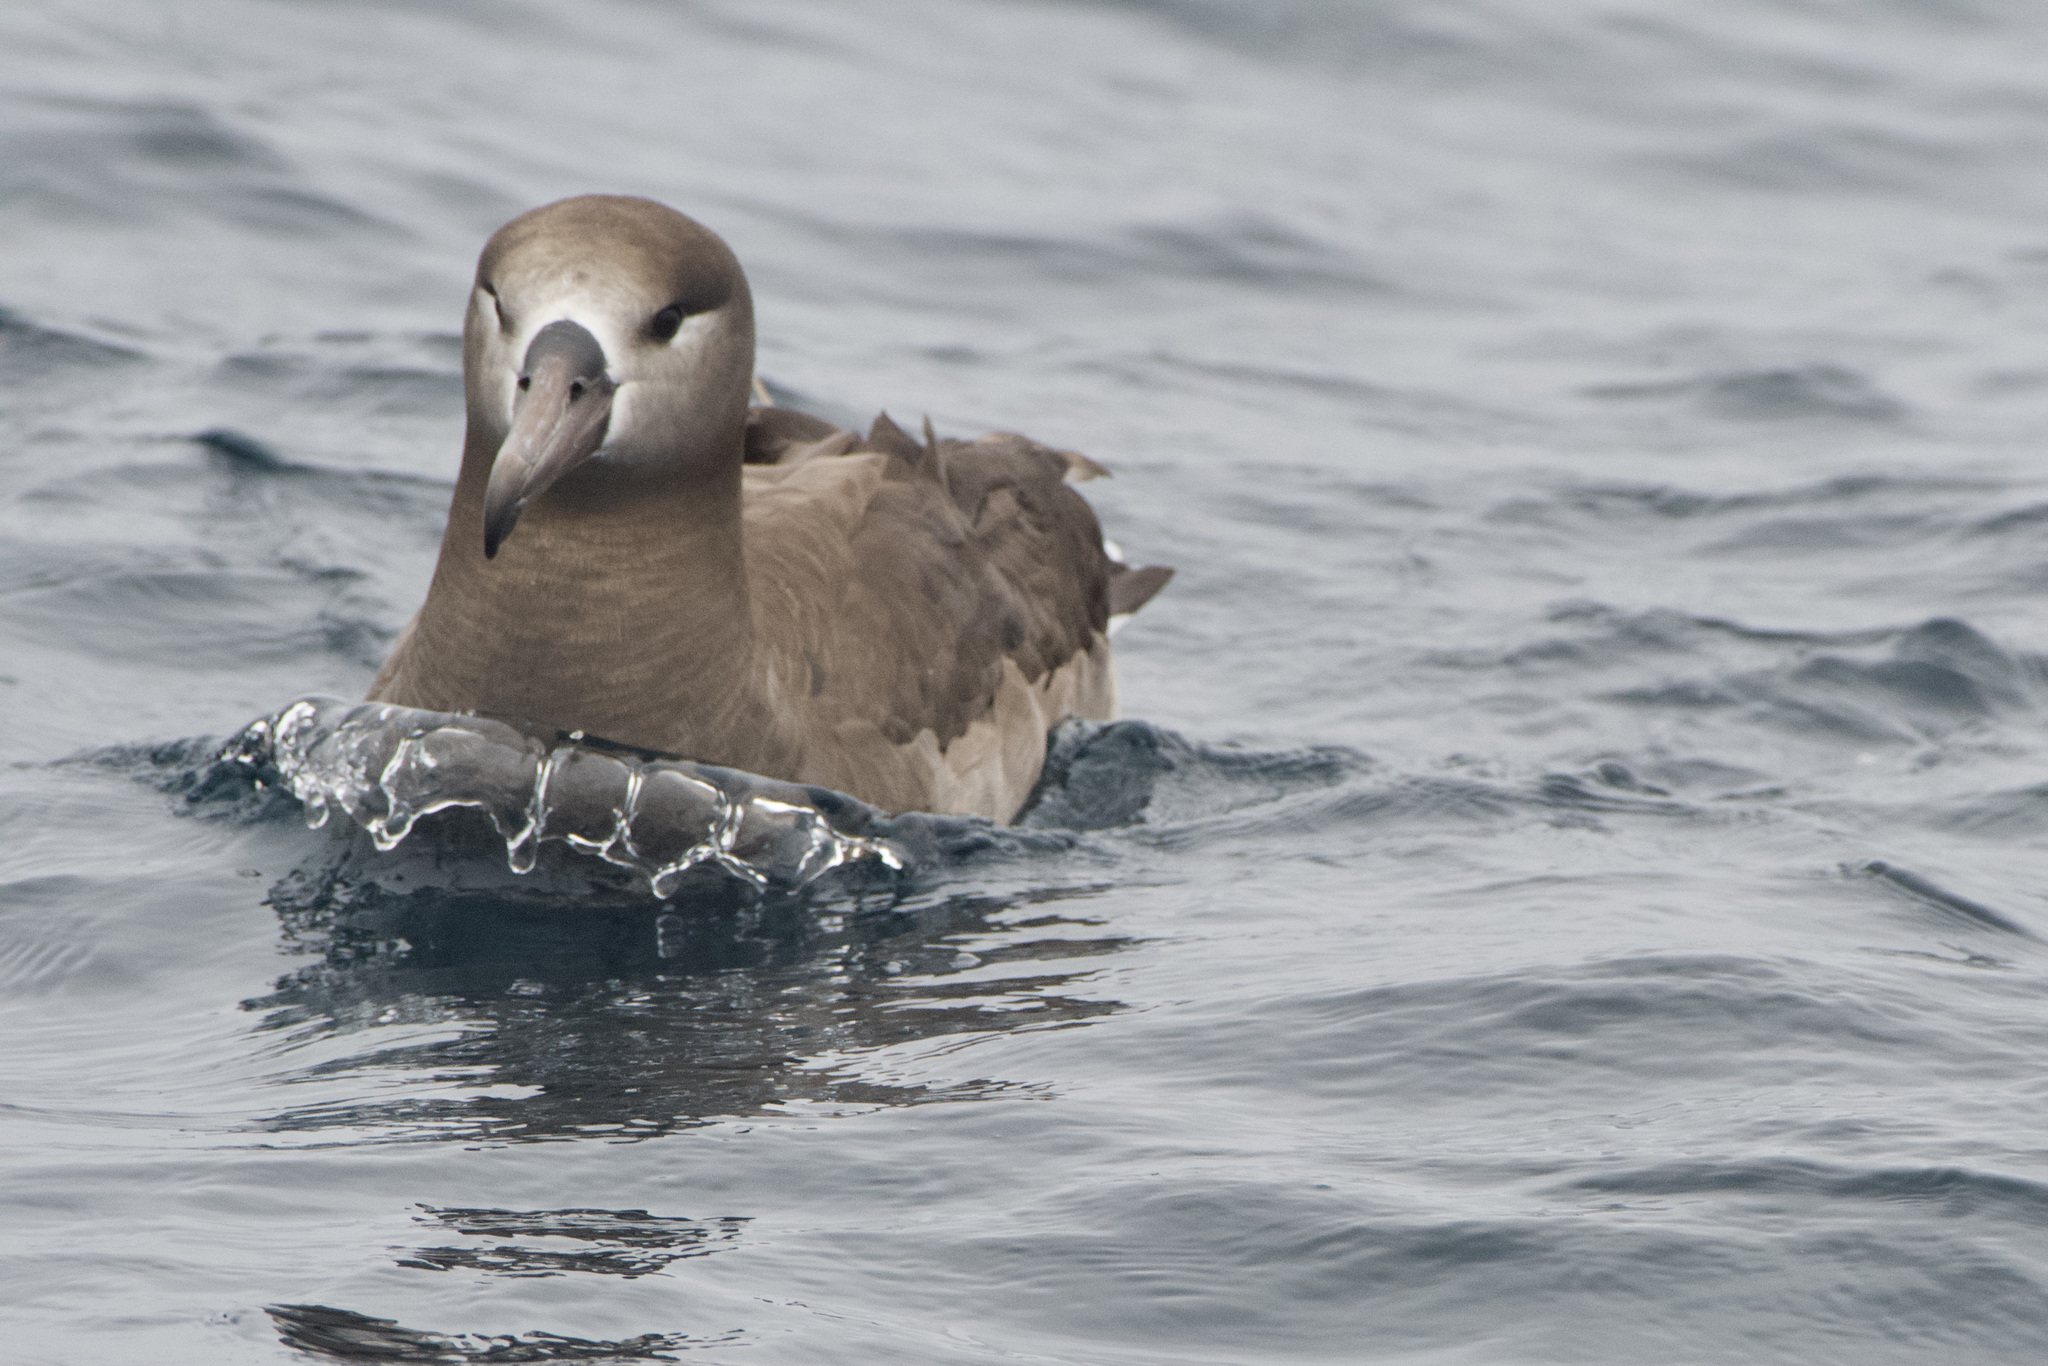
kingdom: Animalia
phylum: Chordata
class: Aves
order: Procellariiformes
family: Diomedeidae
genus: Phoebastria
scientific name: Phoebastria nigripes
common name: Black-footed albatross
